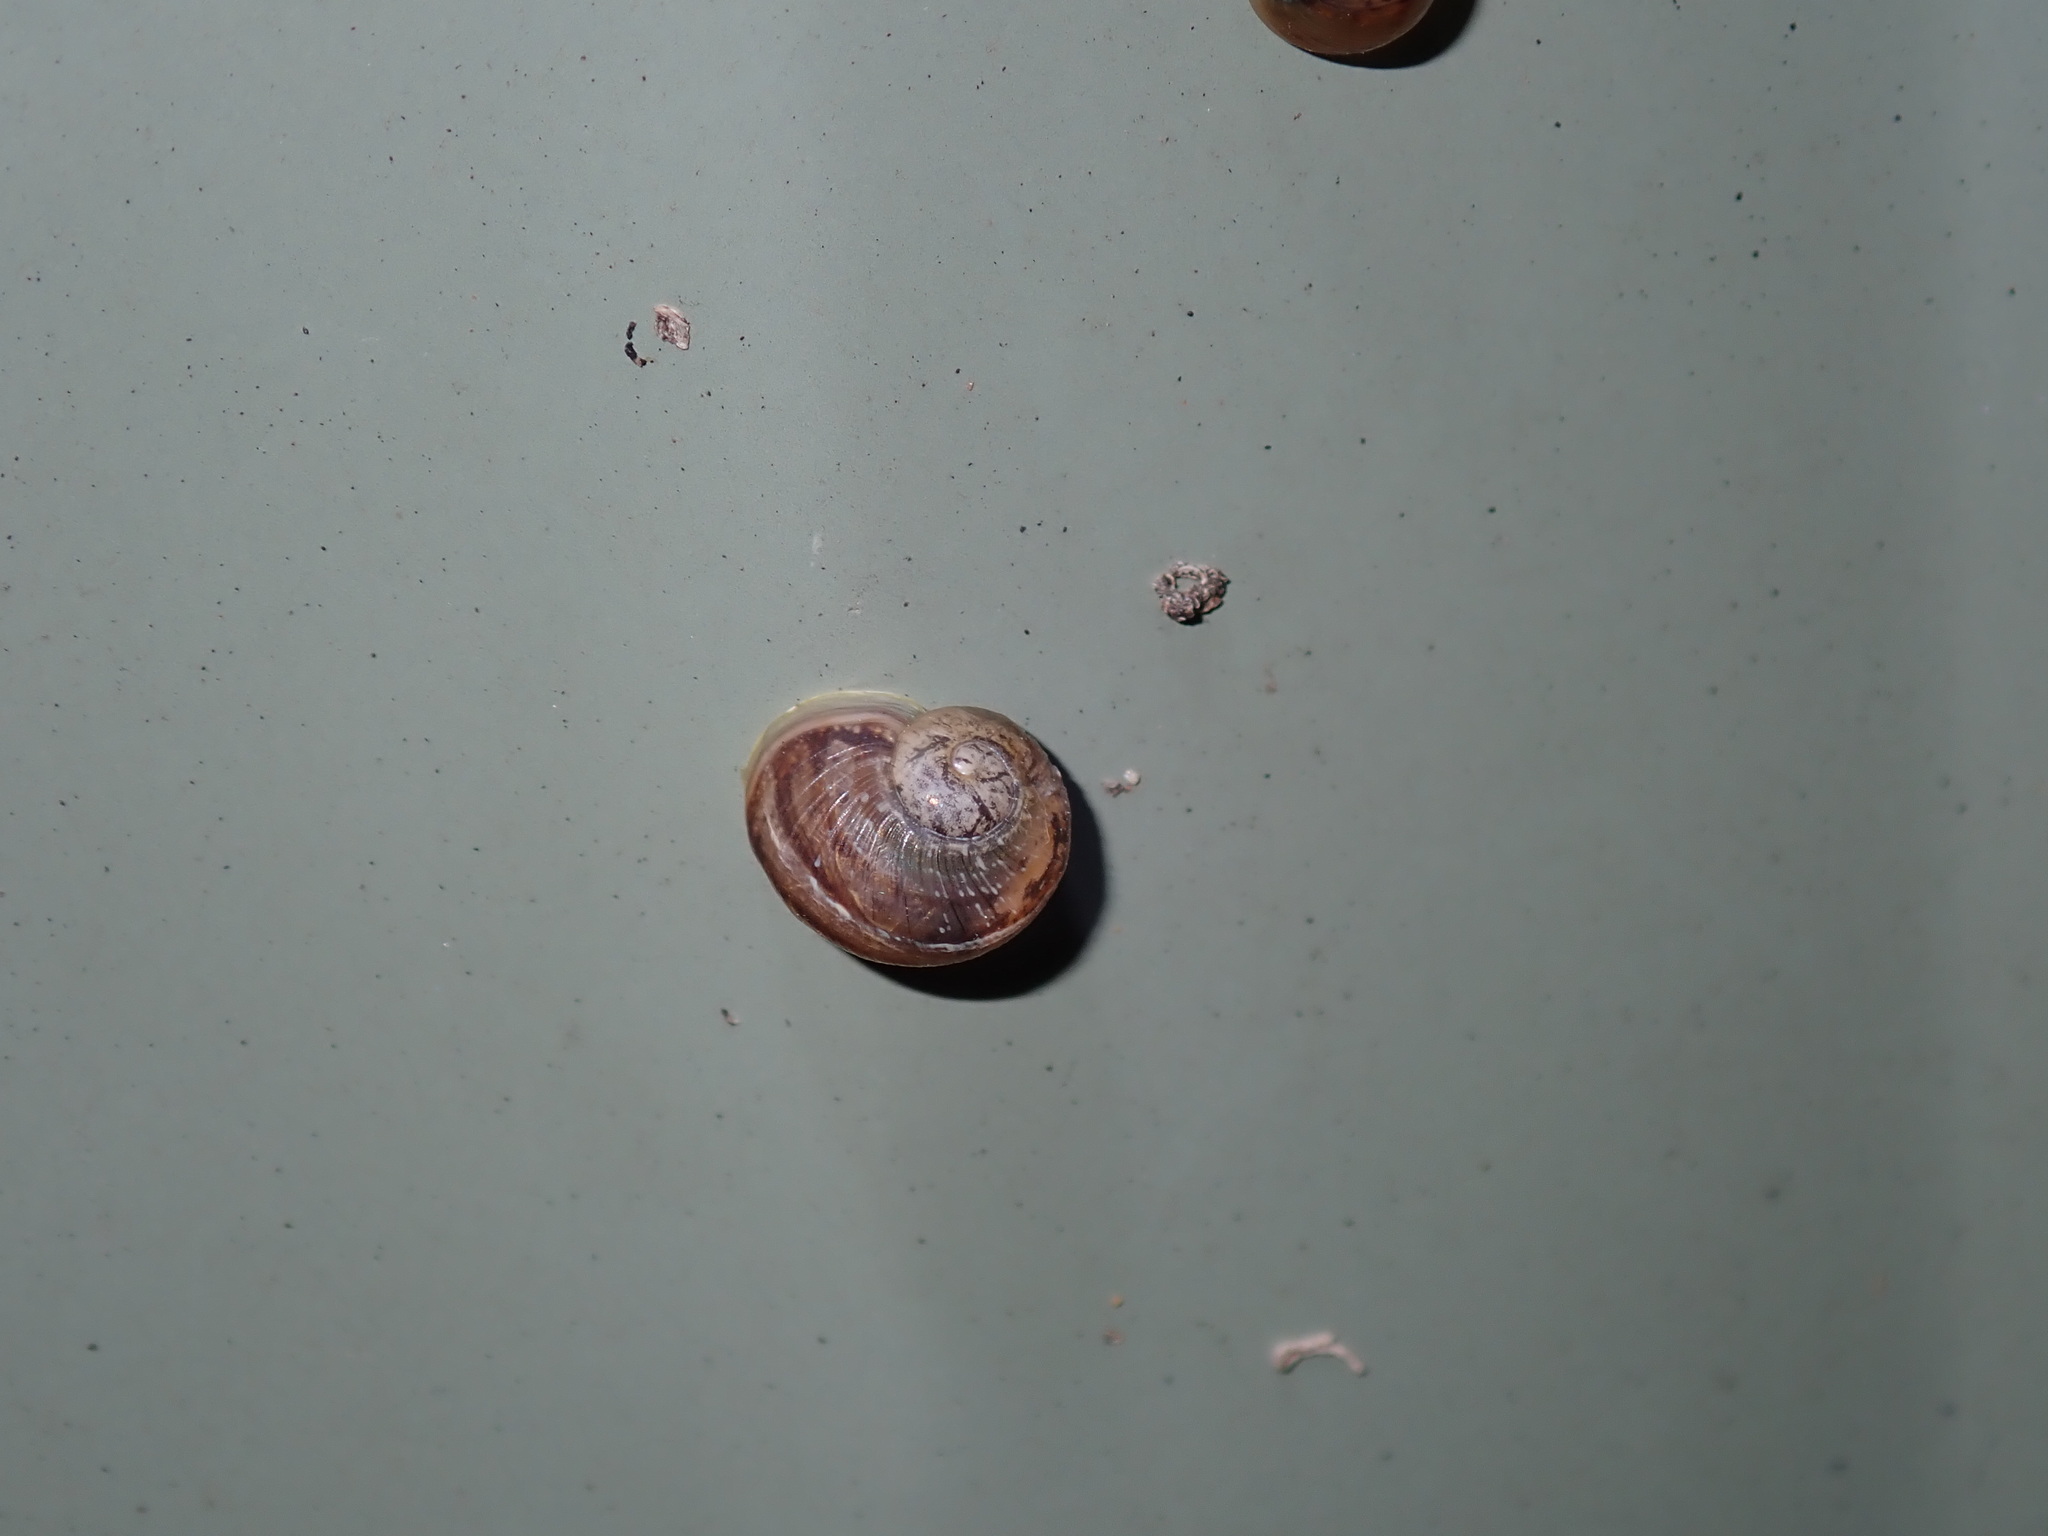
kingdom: Animalia
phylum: Mollusca
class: Gastropoda
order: Stylommatophora
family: Helicidae
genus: Cornu
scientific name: Cornu aspersum
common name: Brown garden snail
